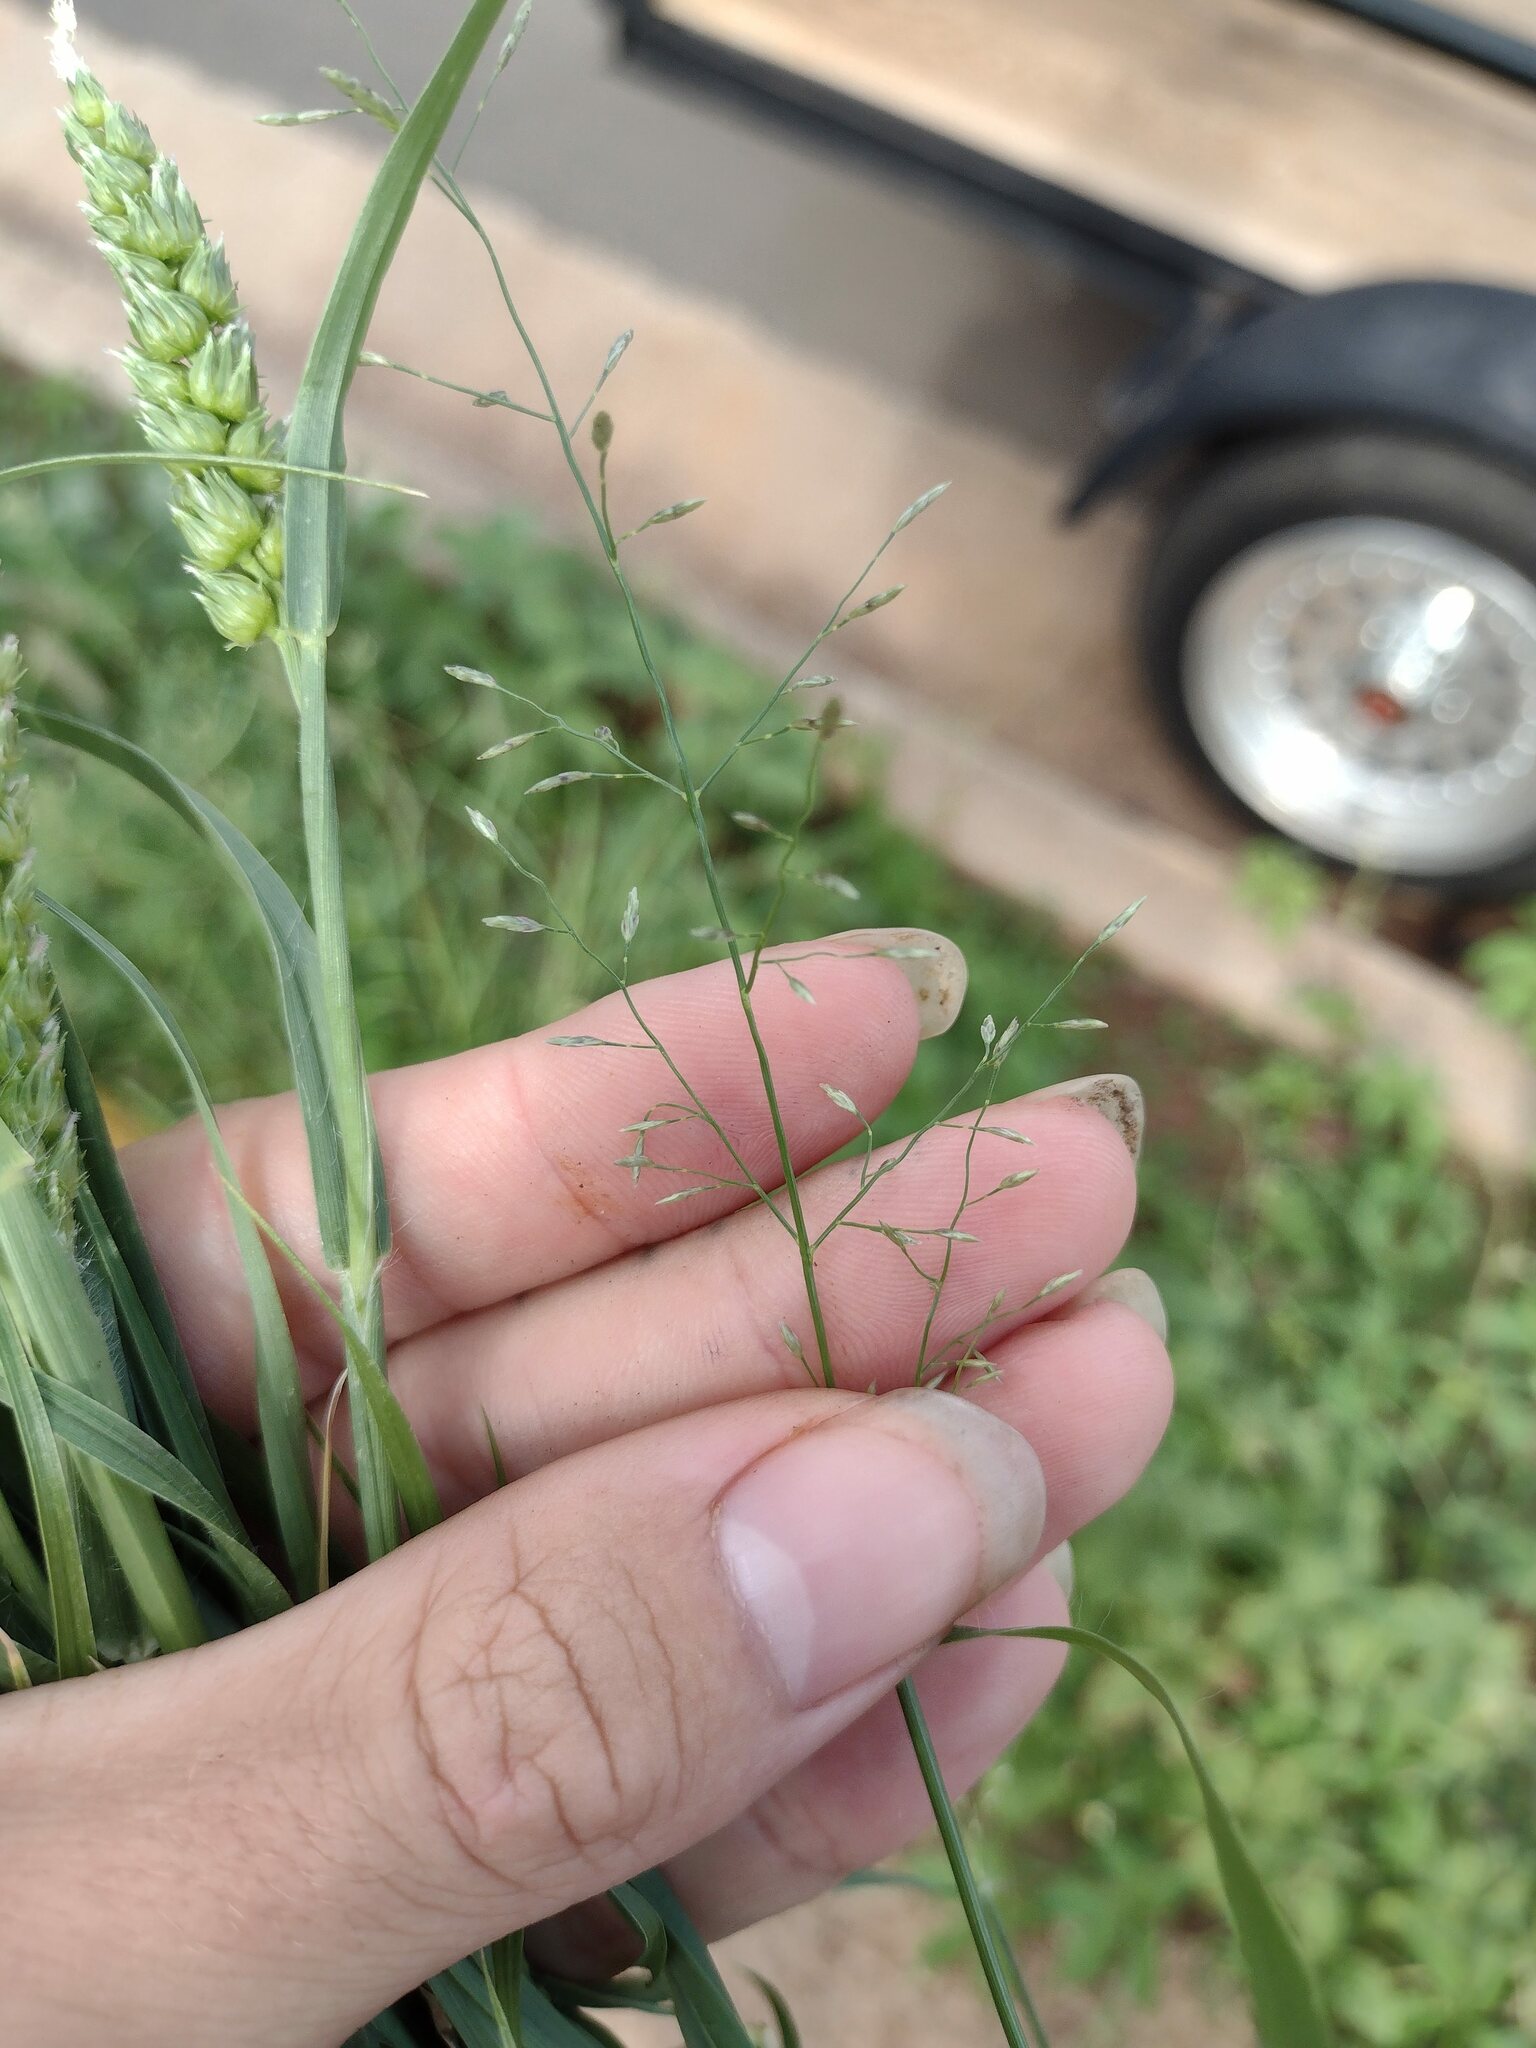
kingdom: Plantae
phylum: Tracheophyta
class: Liliopsida
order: Poales
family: Poaceae
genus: Eragrostis
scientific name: Eragrostis barrelieri
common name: Mediterranean lovegrass
